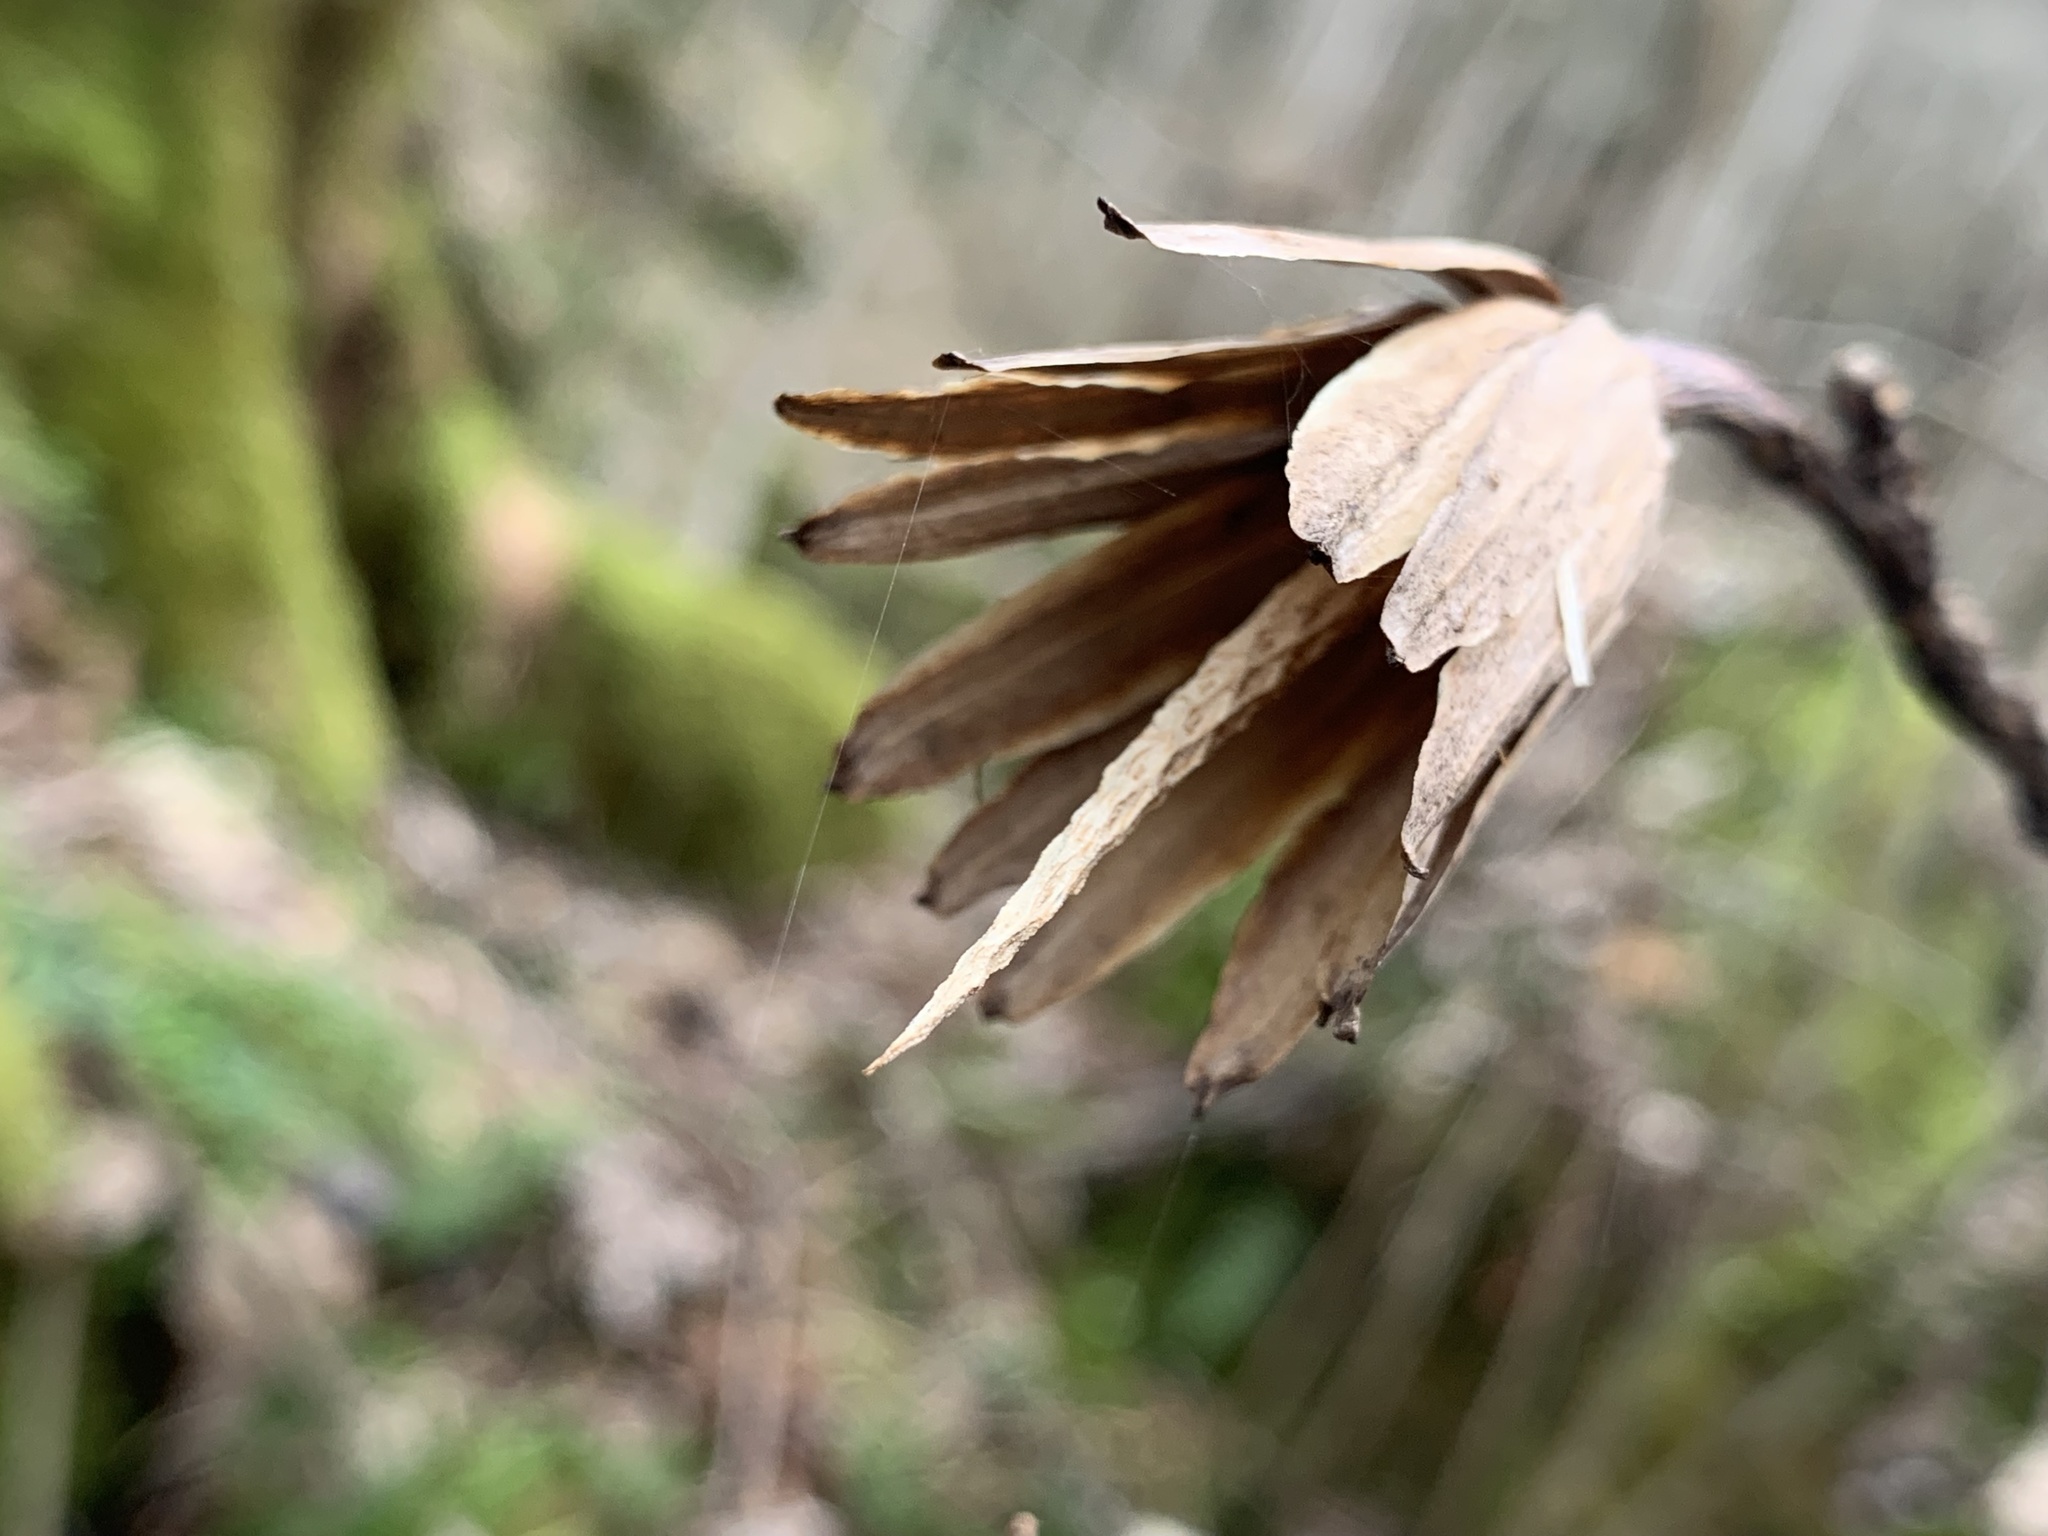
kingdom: Plantae
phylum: Tracheophyta
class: Magnoliopsida
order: Magnoliales
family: Magnoliaceae
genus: Liriodendron
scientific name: Liriodendron tulipifera
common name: Tulip tree
